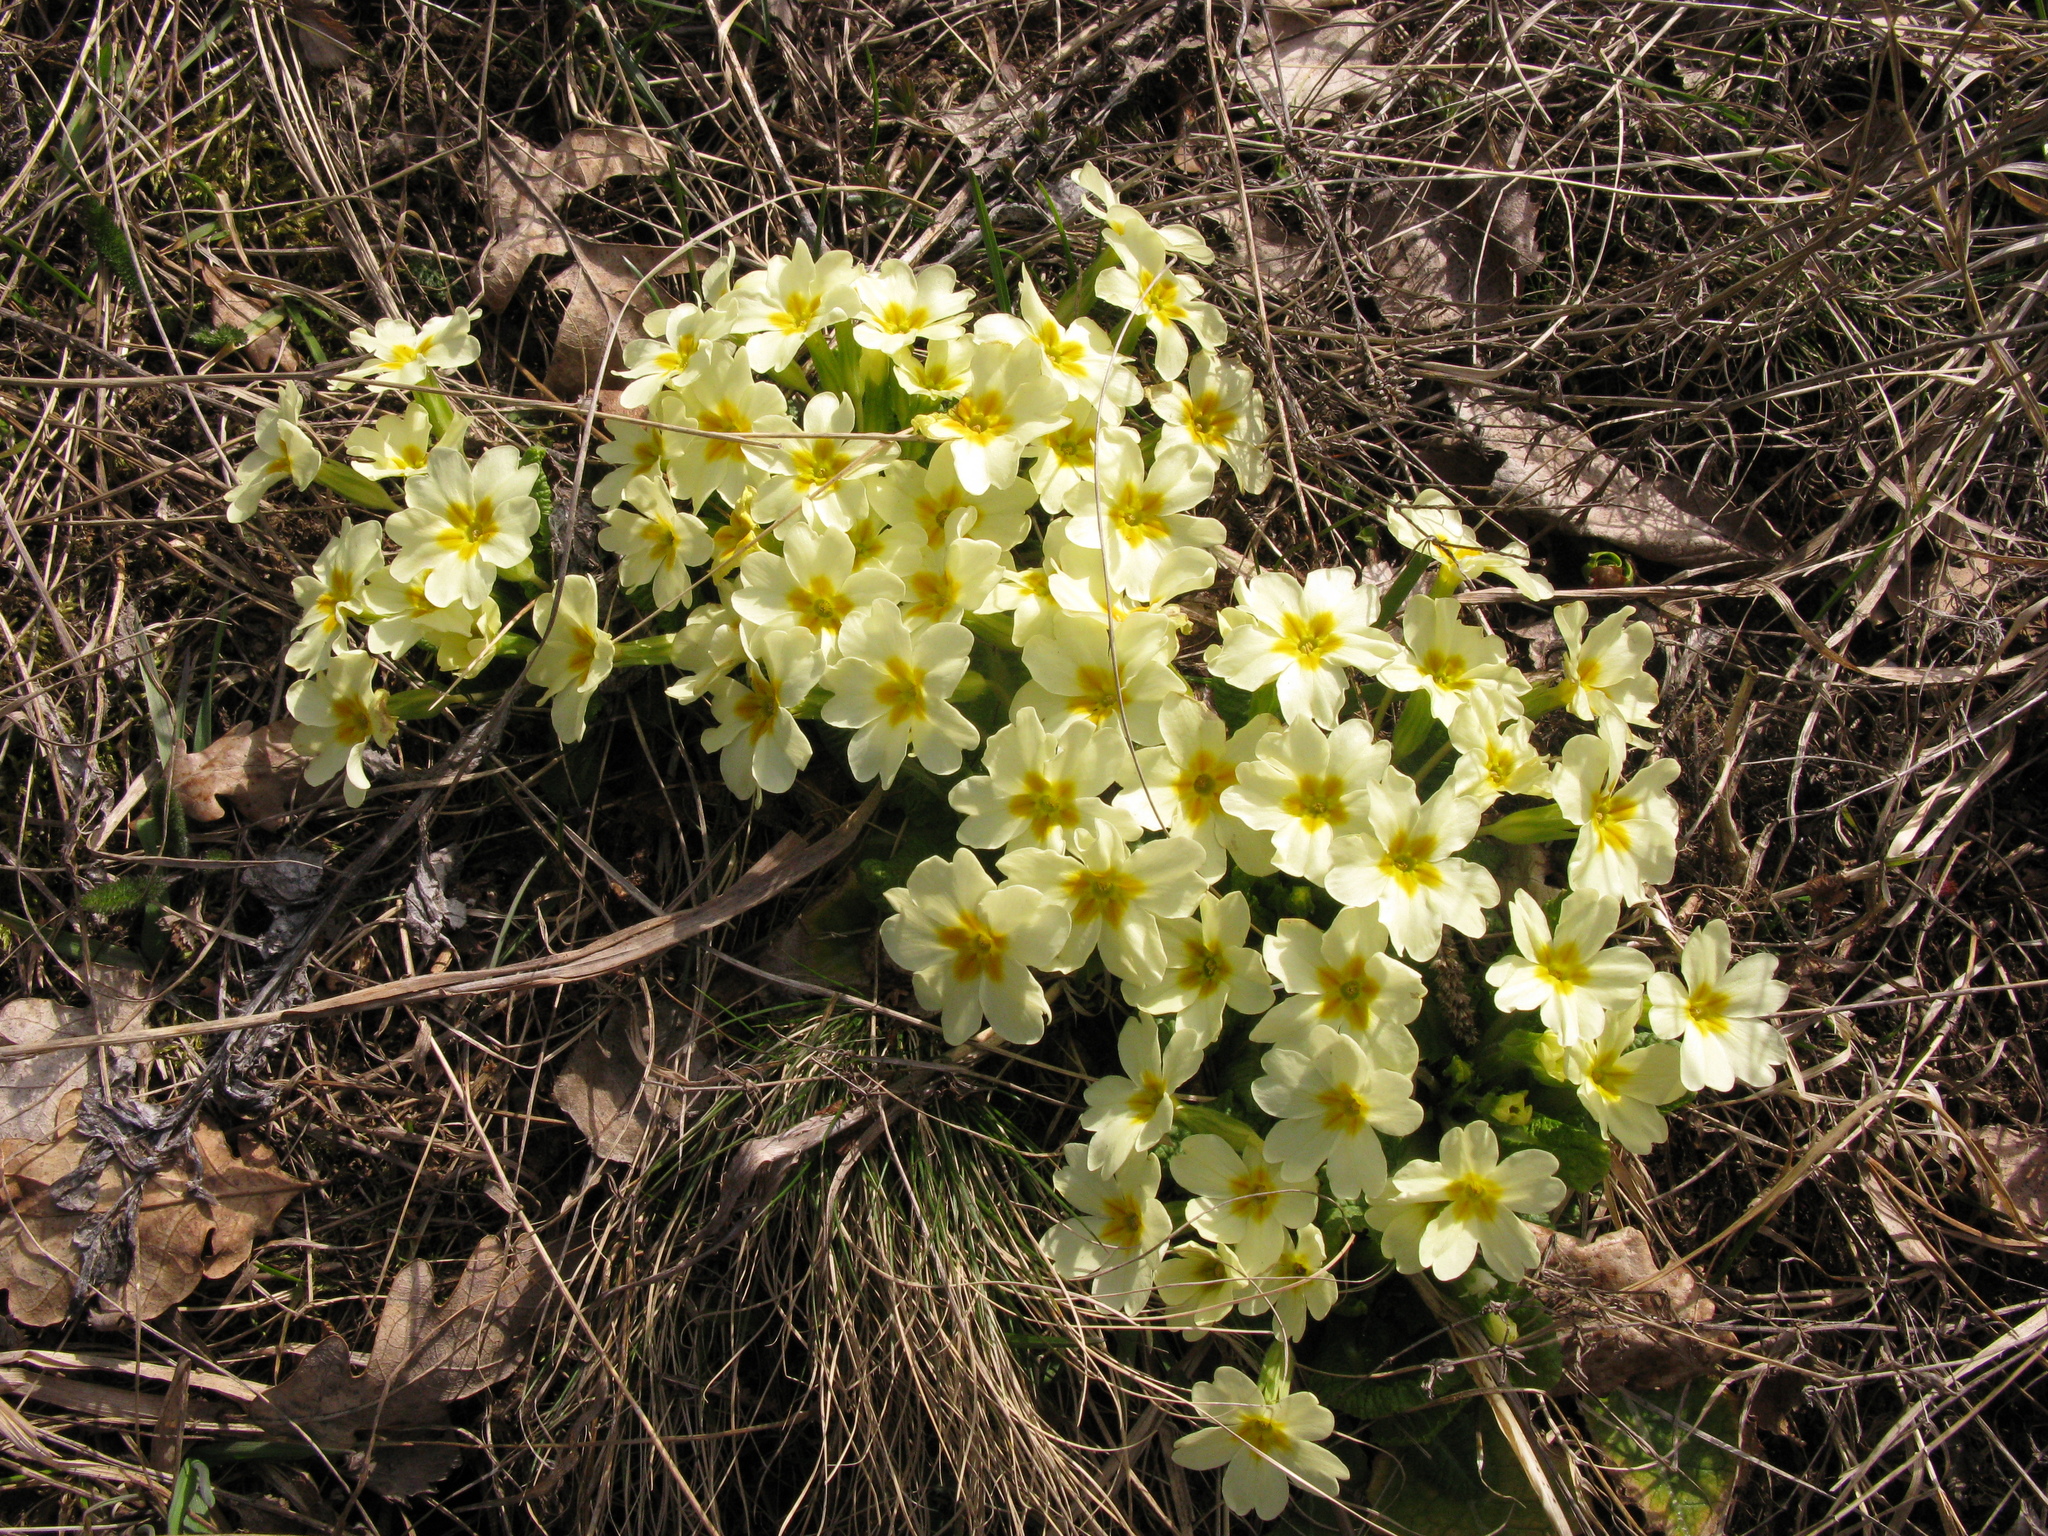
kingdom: Plantae
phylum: Tracheophyta
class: Magnoliopsida
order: Ericales
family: Primulaceae
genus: Primula
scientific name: Primula vulgaris
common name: Primrose
